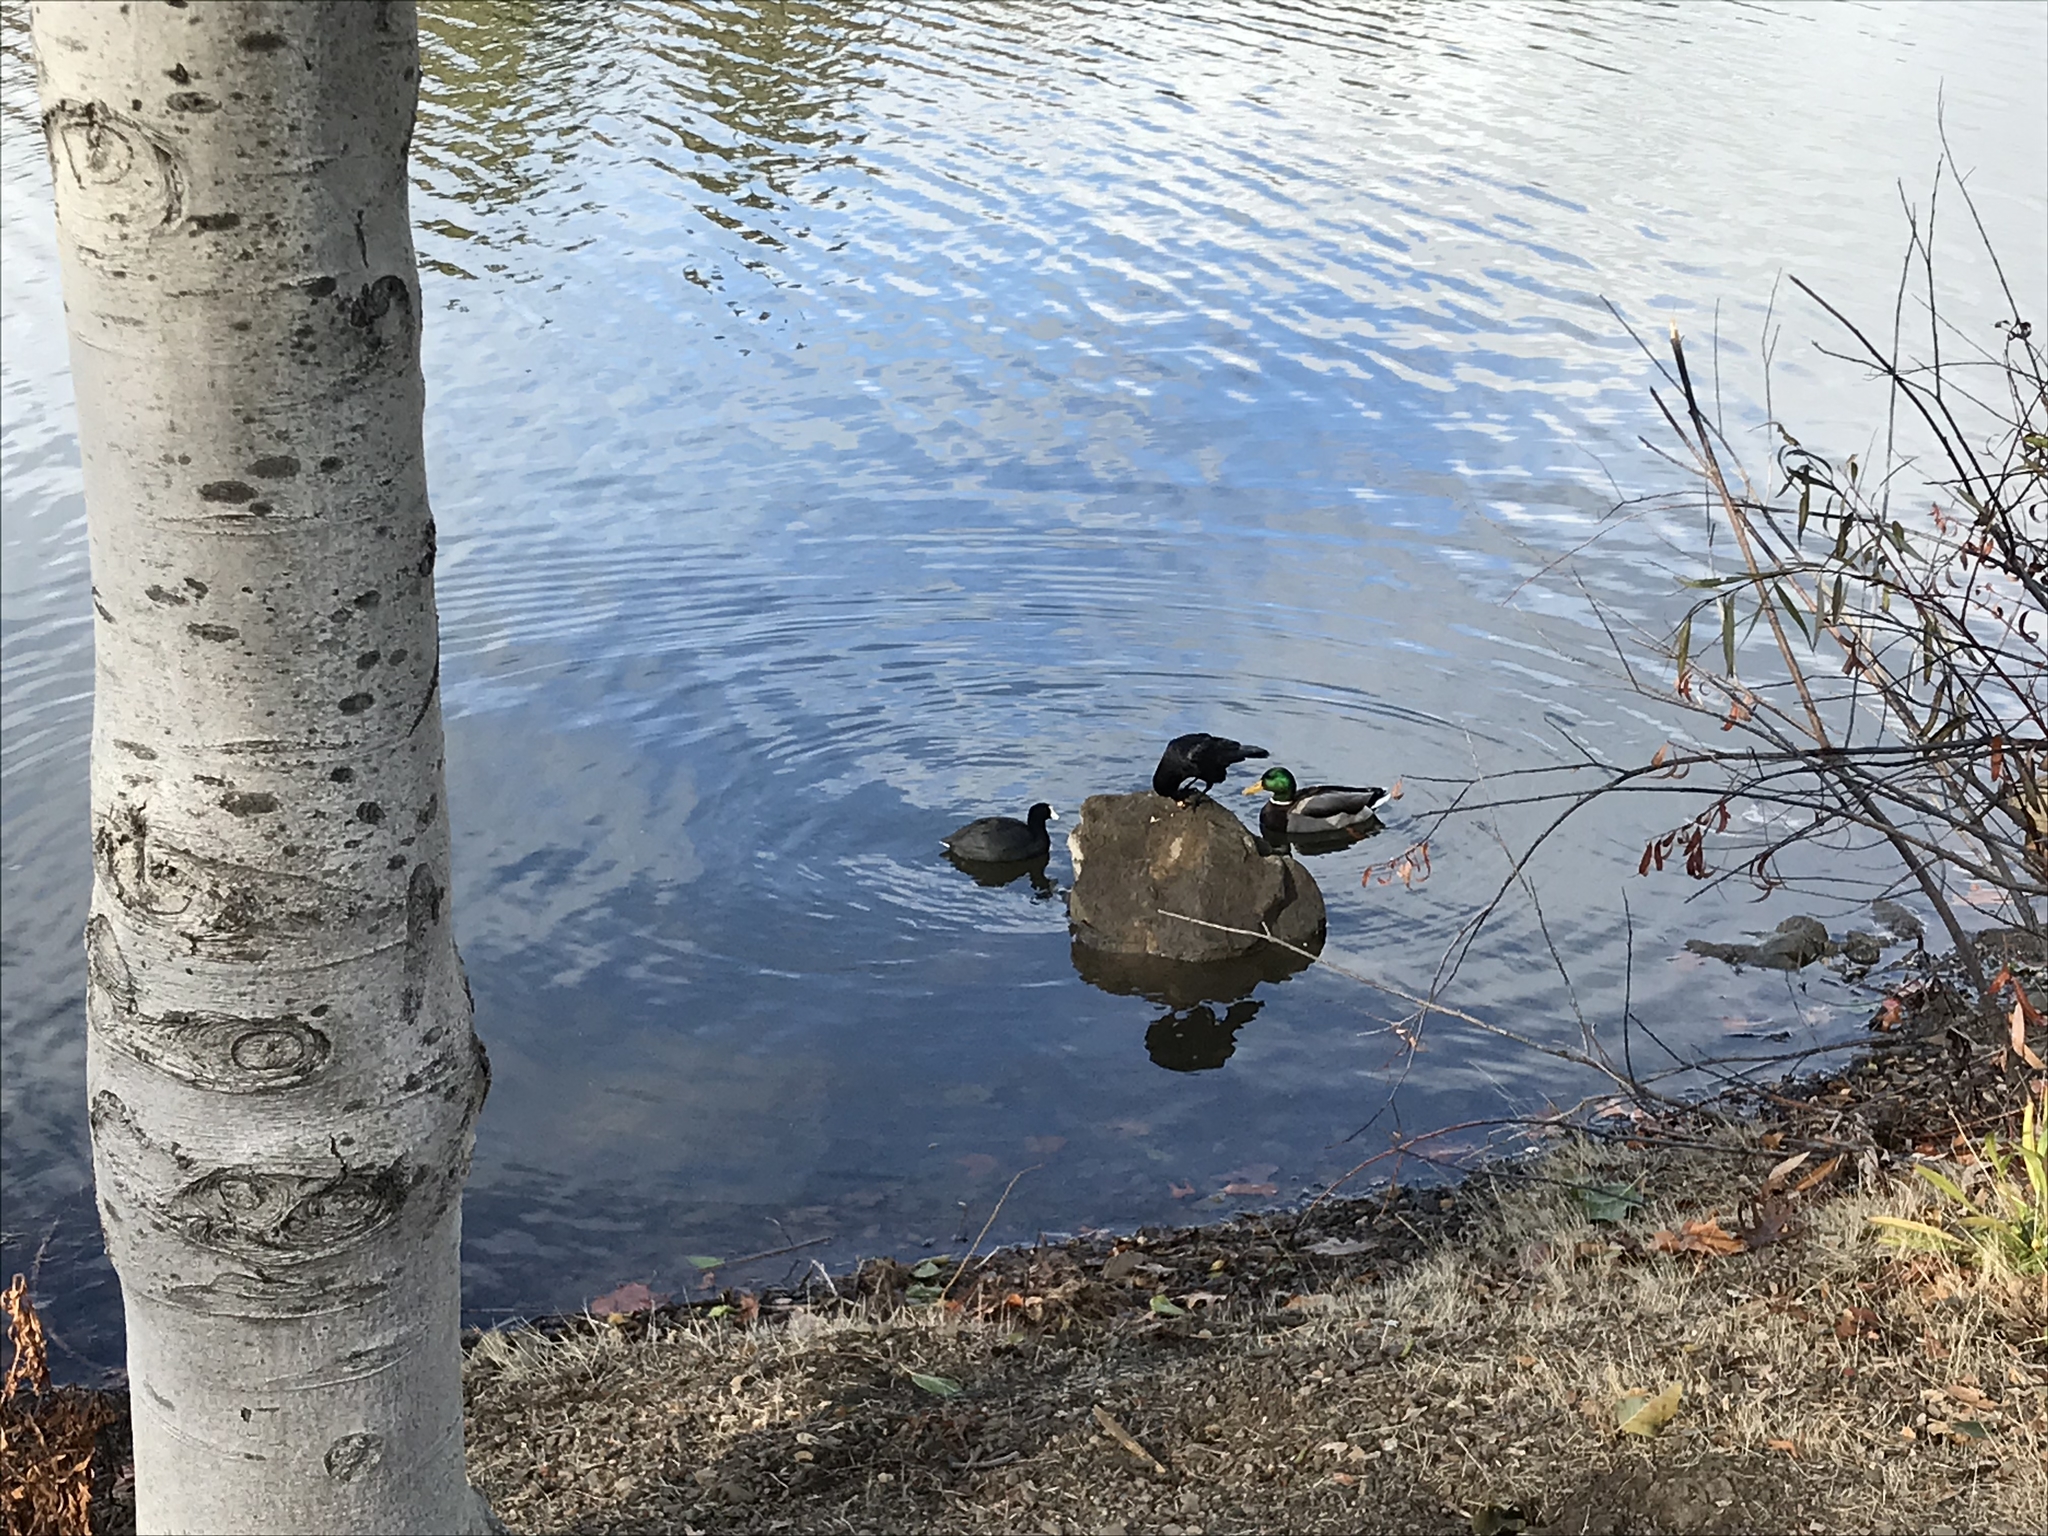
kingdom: Animalia
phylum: Chordata
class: Aves
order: Gruiformes
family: Rallidae
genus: Fulica
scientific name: Fulica americana
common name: American coot
